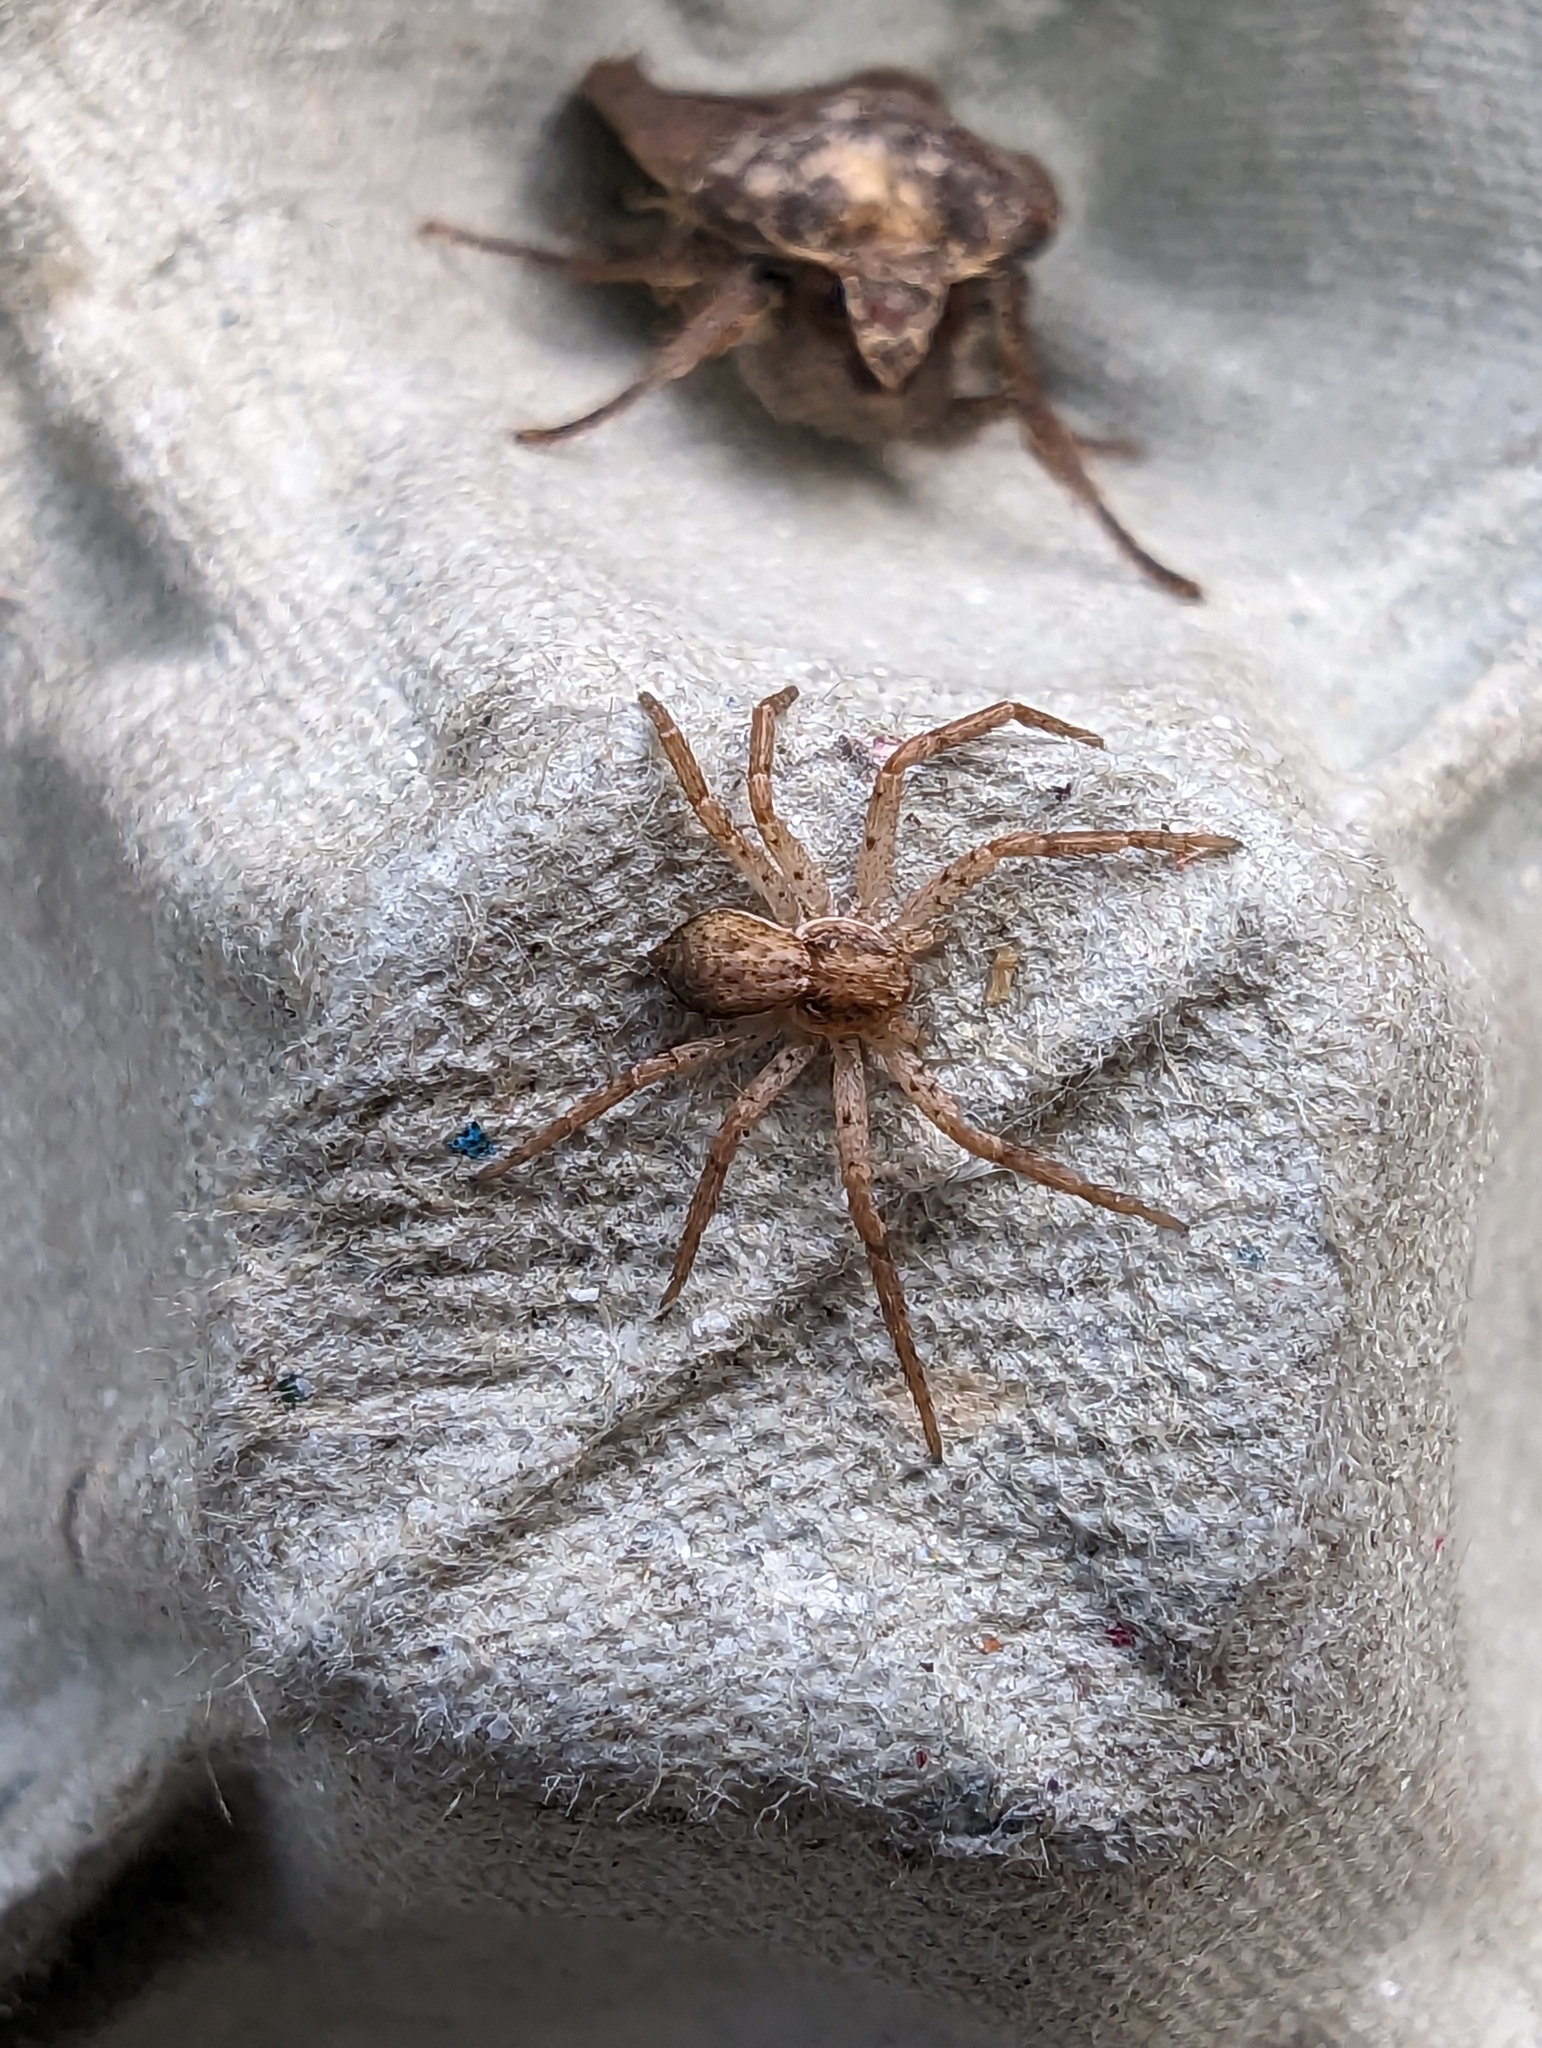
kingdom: Animalia
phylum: Arthropoda
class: Arachnida
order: Araneae
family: Philodromidae
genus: Philodromus
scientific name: Philodromus dispar
